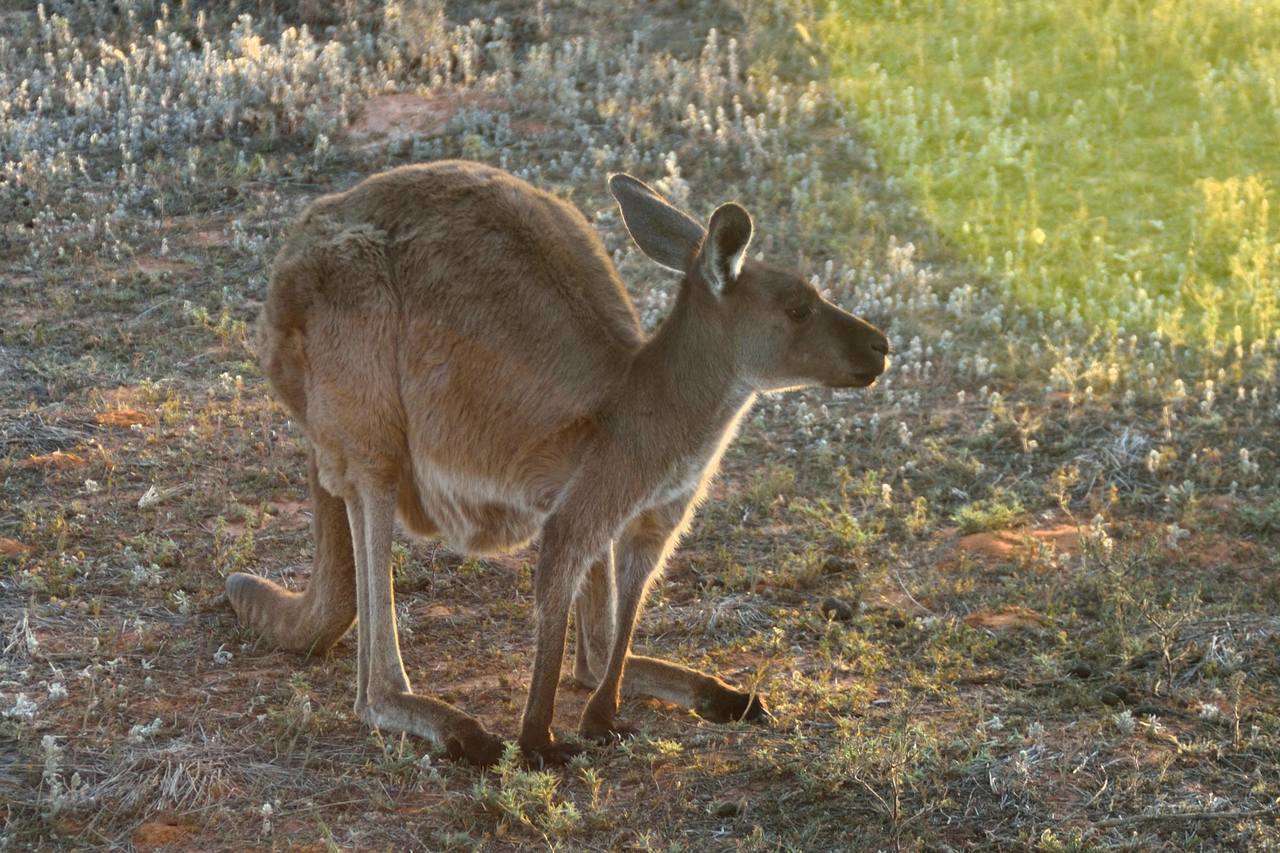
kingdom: Animalia
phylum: Chordata
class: Mammalia
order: Diprotodontia
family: Macropodidae
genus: Macropus
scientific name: Macropus fuliginosus
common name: Western grey kangaroo
